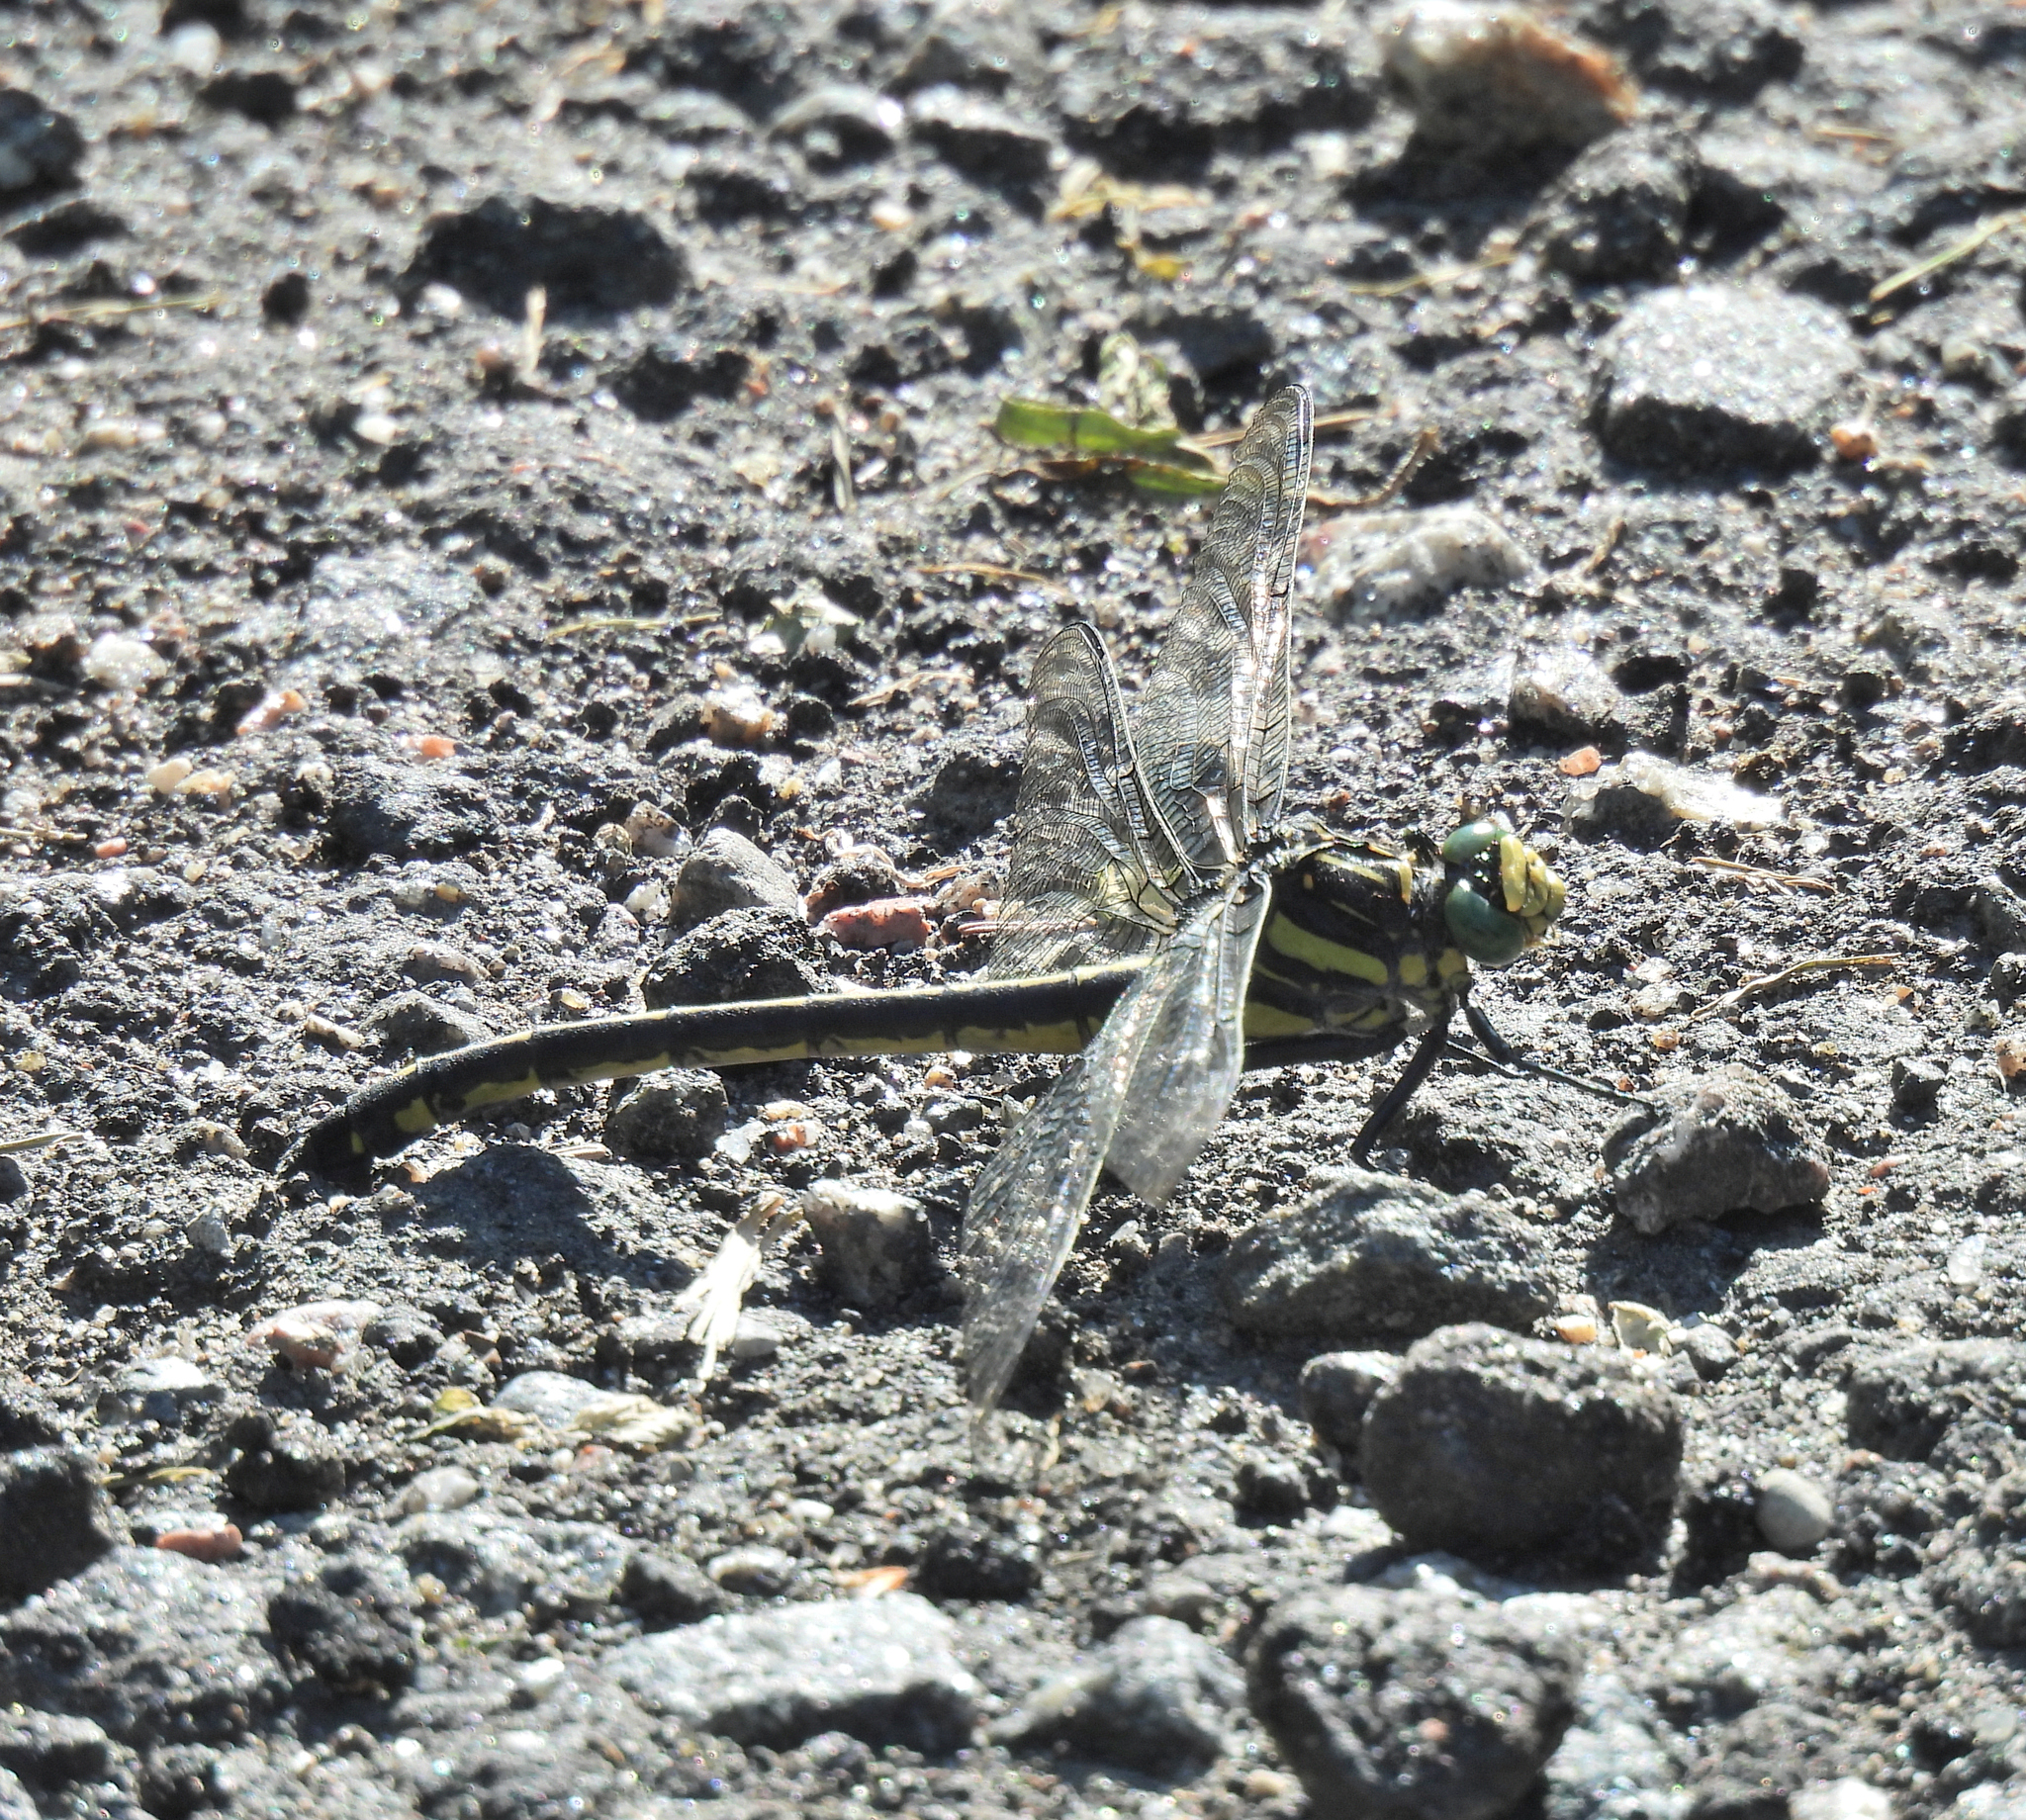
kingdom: Animalia
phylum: Arthropoda
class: Insecta
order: Odonata
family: Gomphidae
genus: Hagenius
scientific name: Hagenius brevistylus
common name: Dragonhunter
